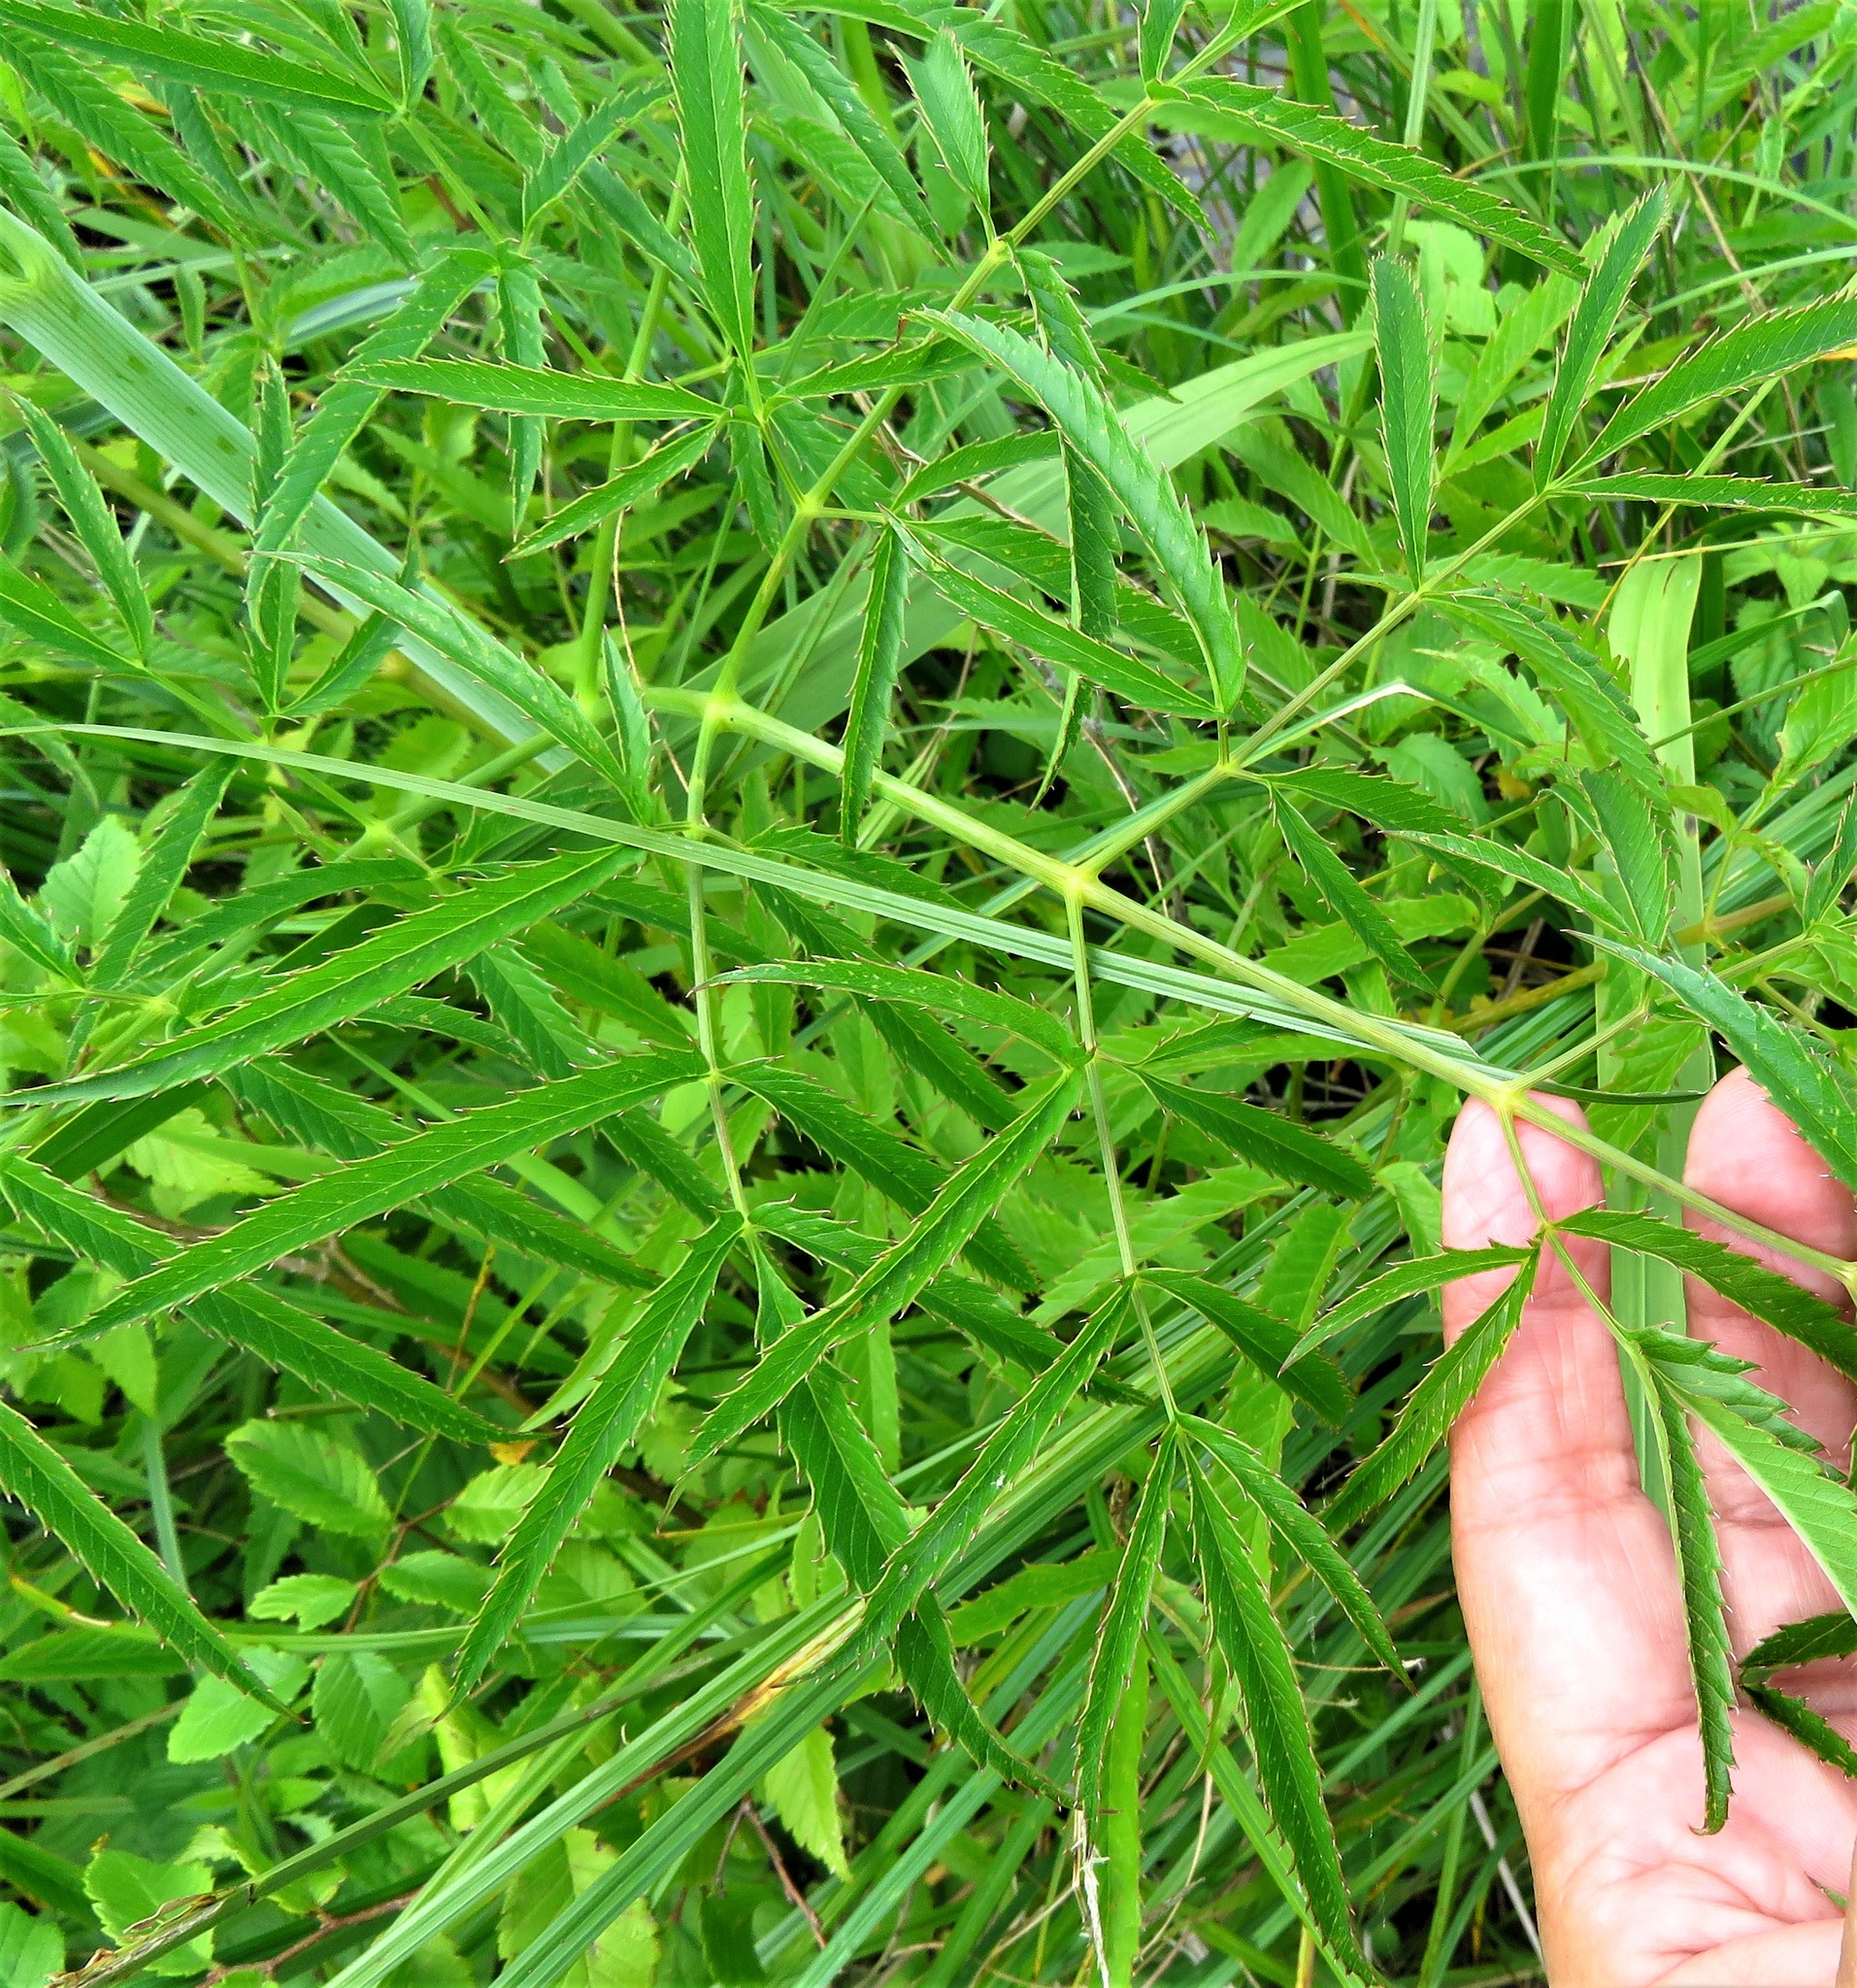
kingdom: Plantae
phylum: Tracheophyta
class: Magnoliopsida
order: Apiales
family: Apiaceae
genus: Cicuta
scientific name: Cicuta maculata
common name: Spotted cowbane
